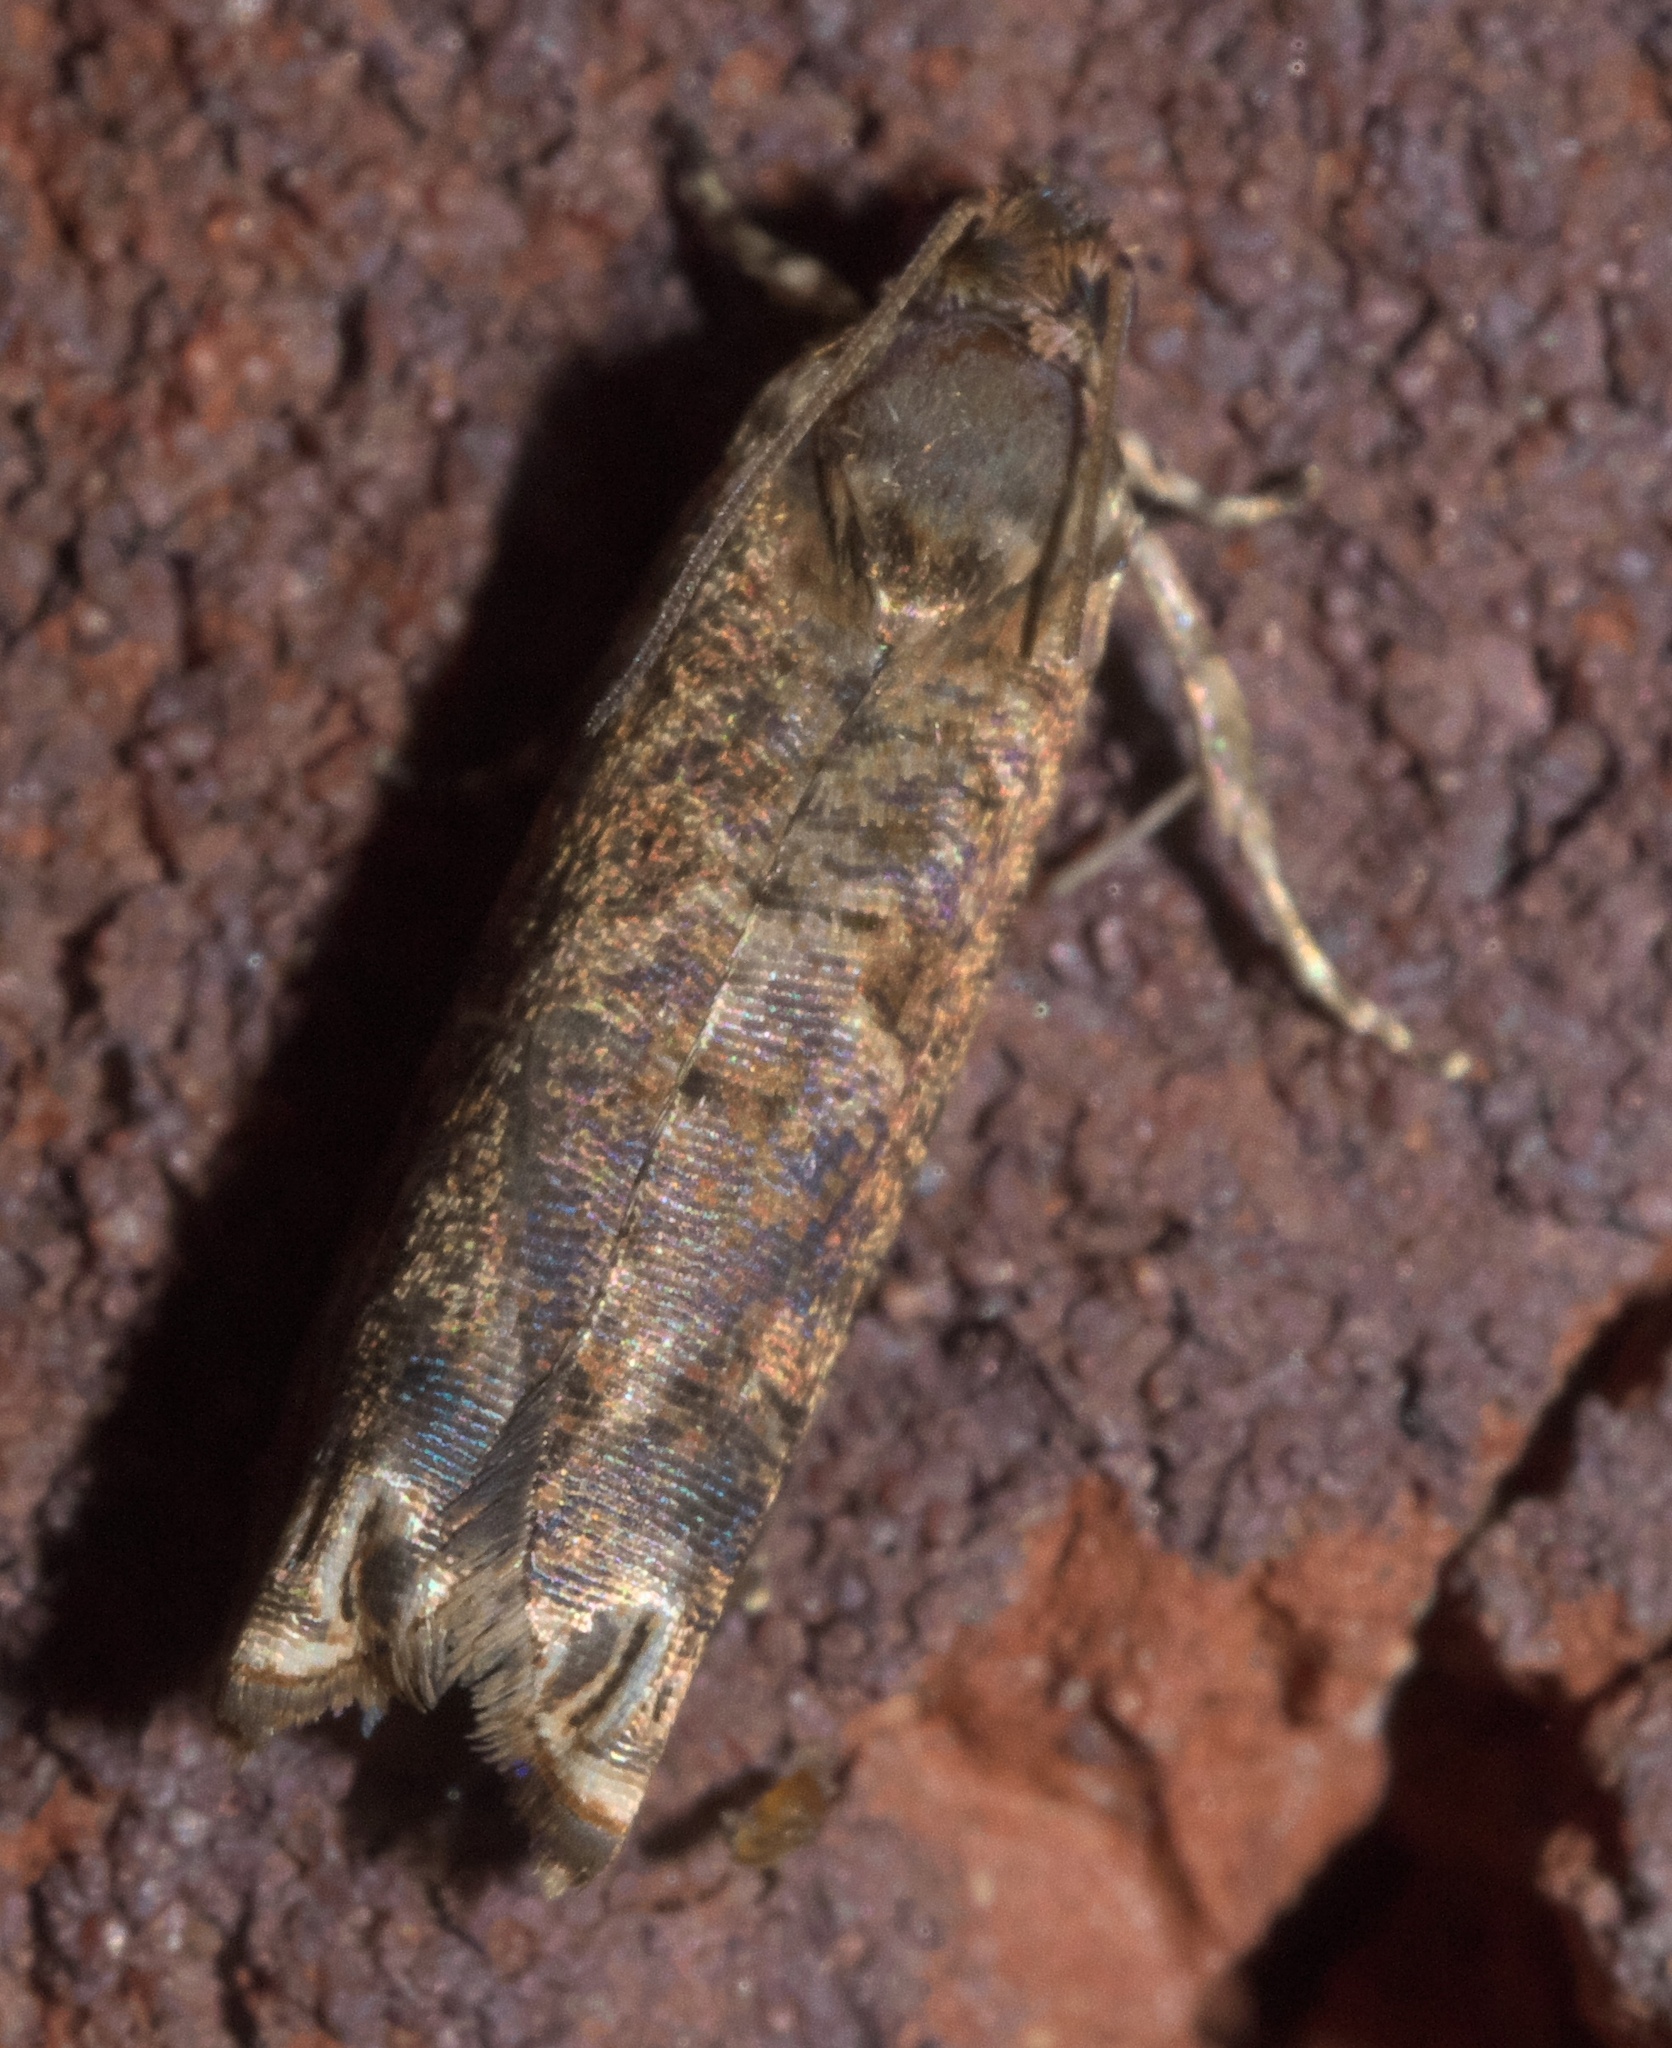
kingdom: Animalia
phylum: Arthropoda
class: Insecta
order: Lepidoptera
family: Tortricidae
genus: Episimus
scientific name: Episimus argutana
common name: Sumac leaftier moth
